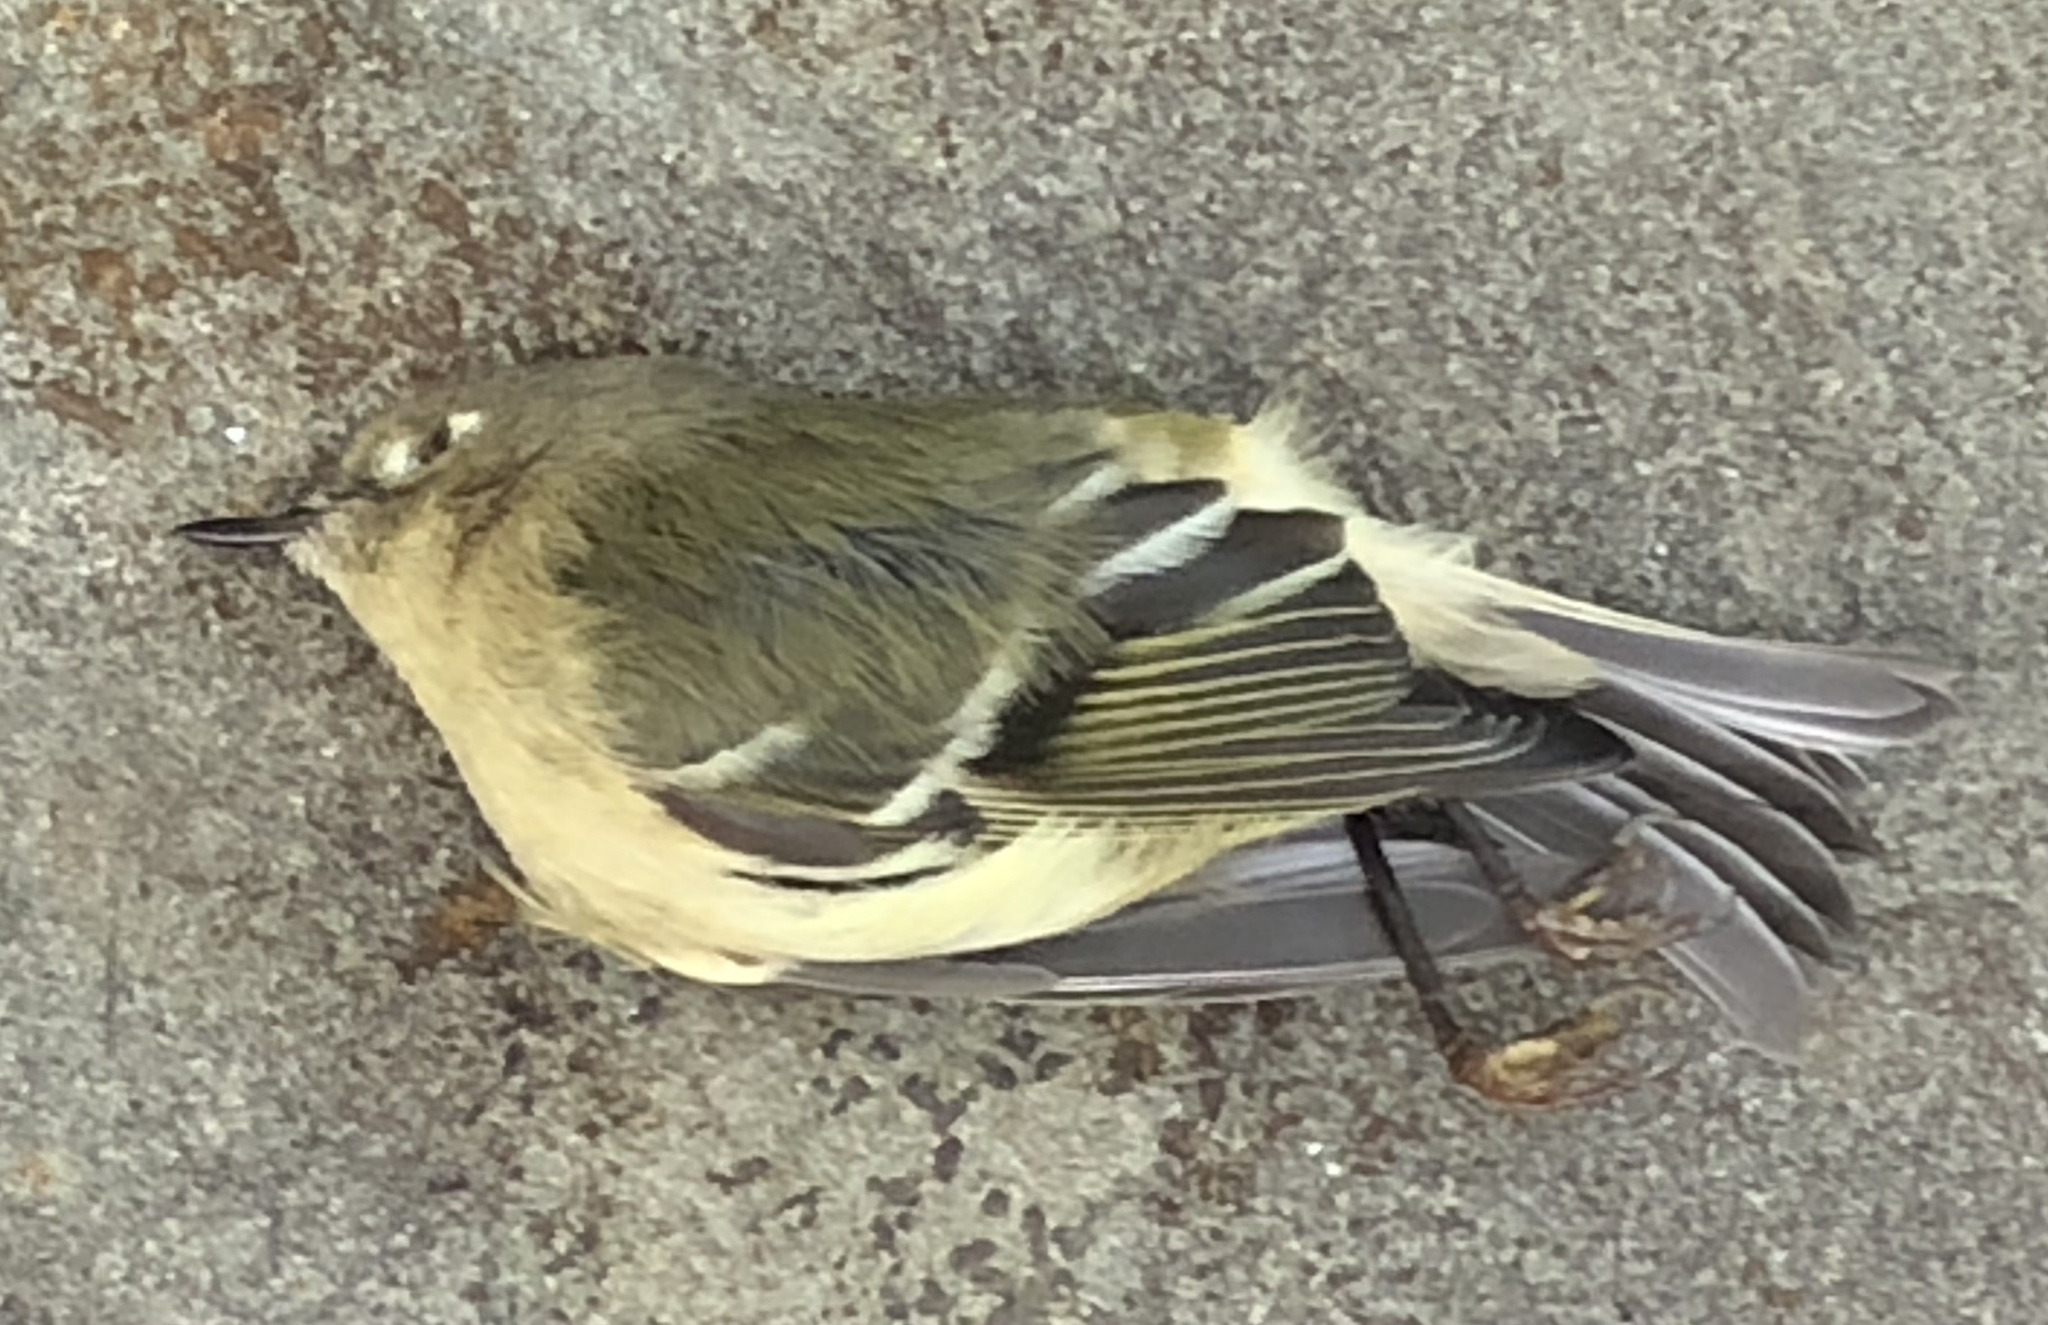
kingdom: Animalia
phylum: Chordata
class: Aves
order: Passeriformes
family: Regulidae
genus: Regulus
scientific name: Regulus calendula
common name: Ruby-crowned kinglet
